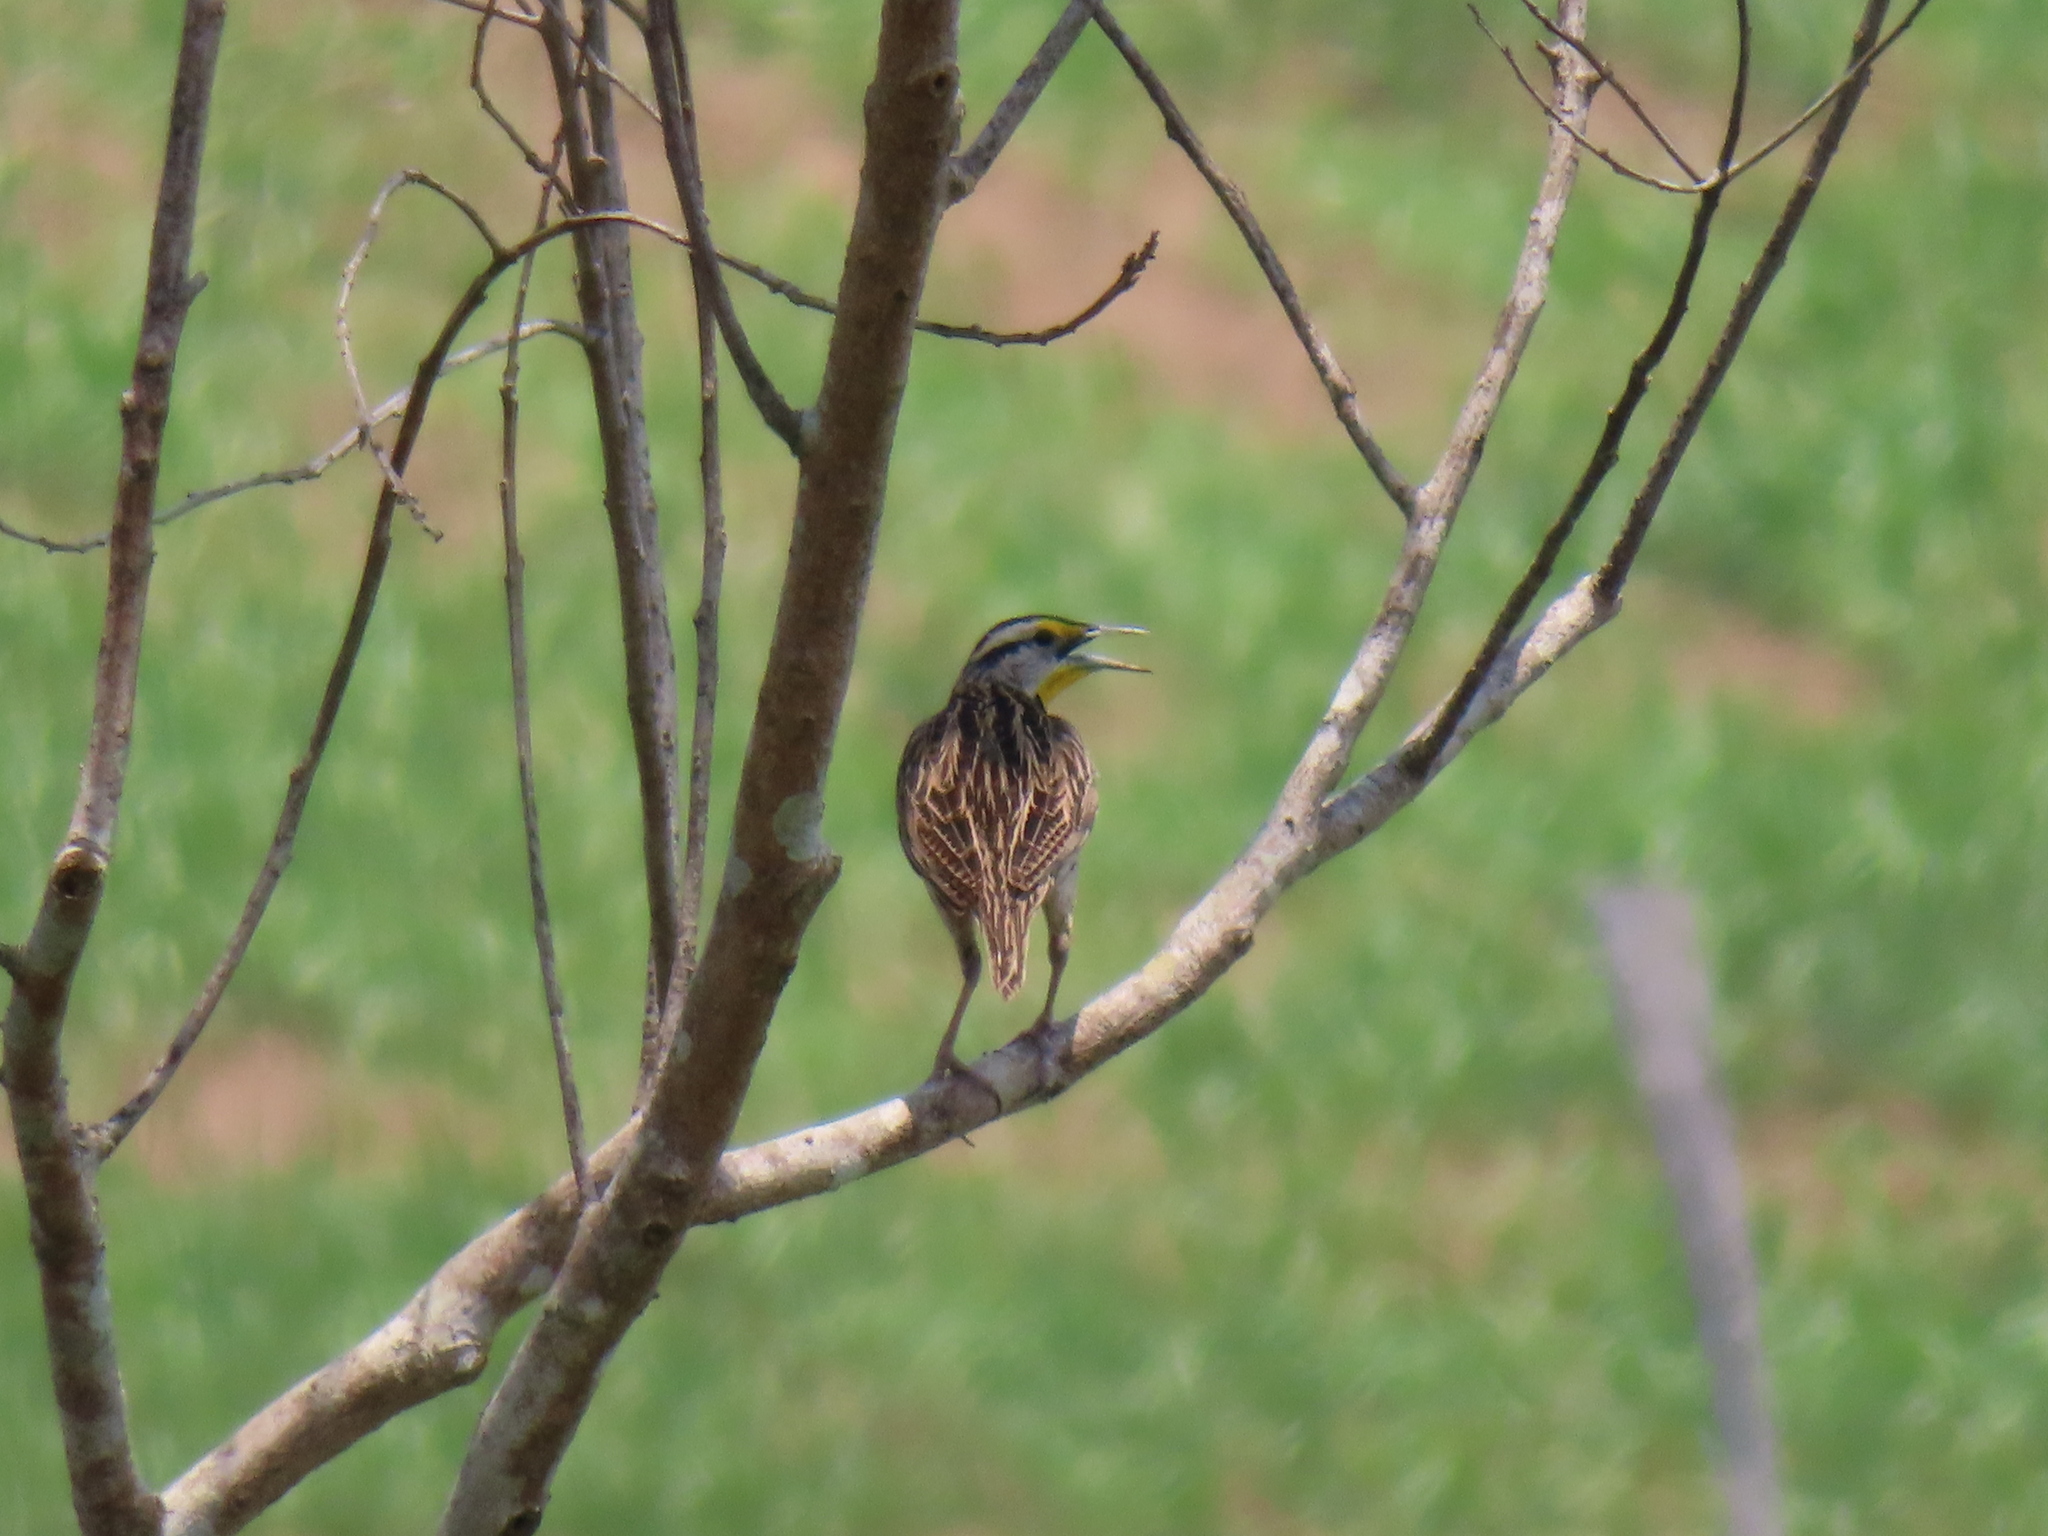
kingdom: Animalia
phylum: Chordata
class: Aves
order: Passeriformes
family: Icteridae
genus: Sturnella
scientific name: Sturnella magna
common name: Eastern meadowlark
